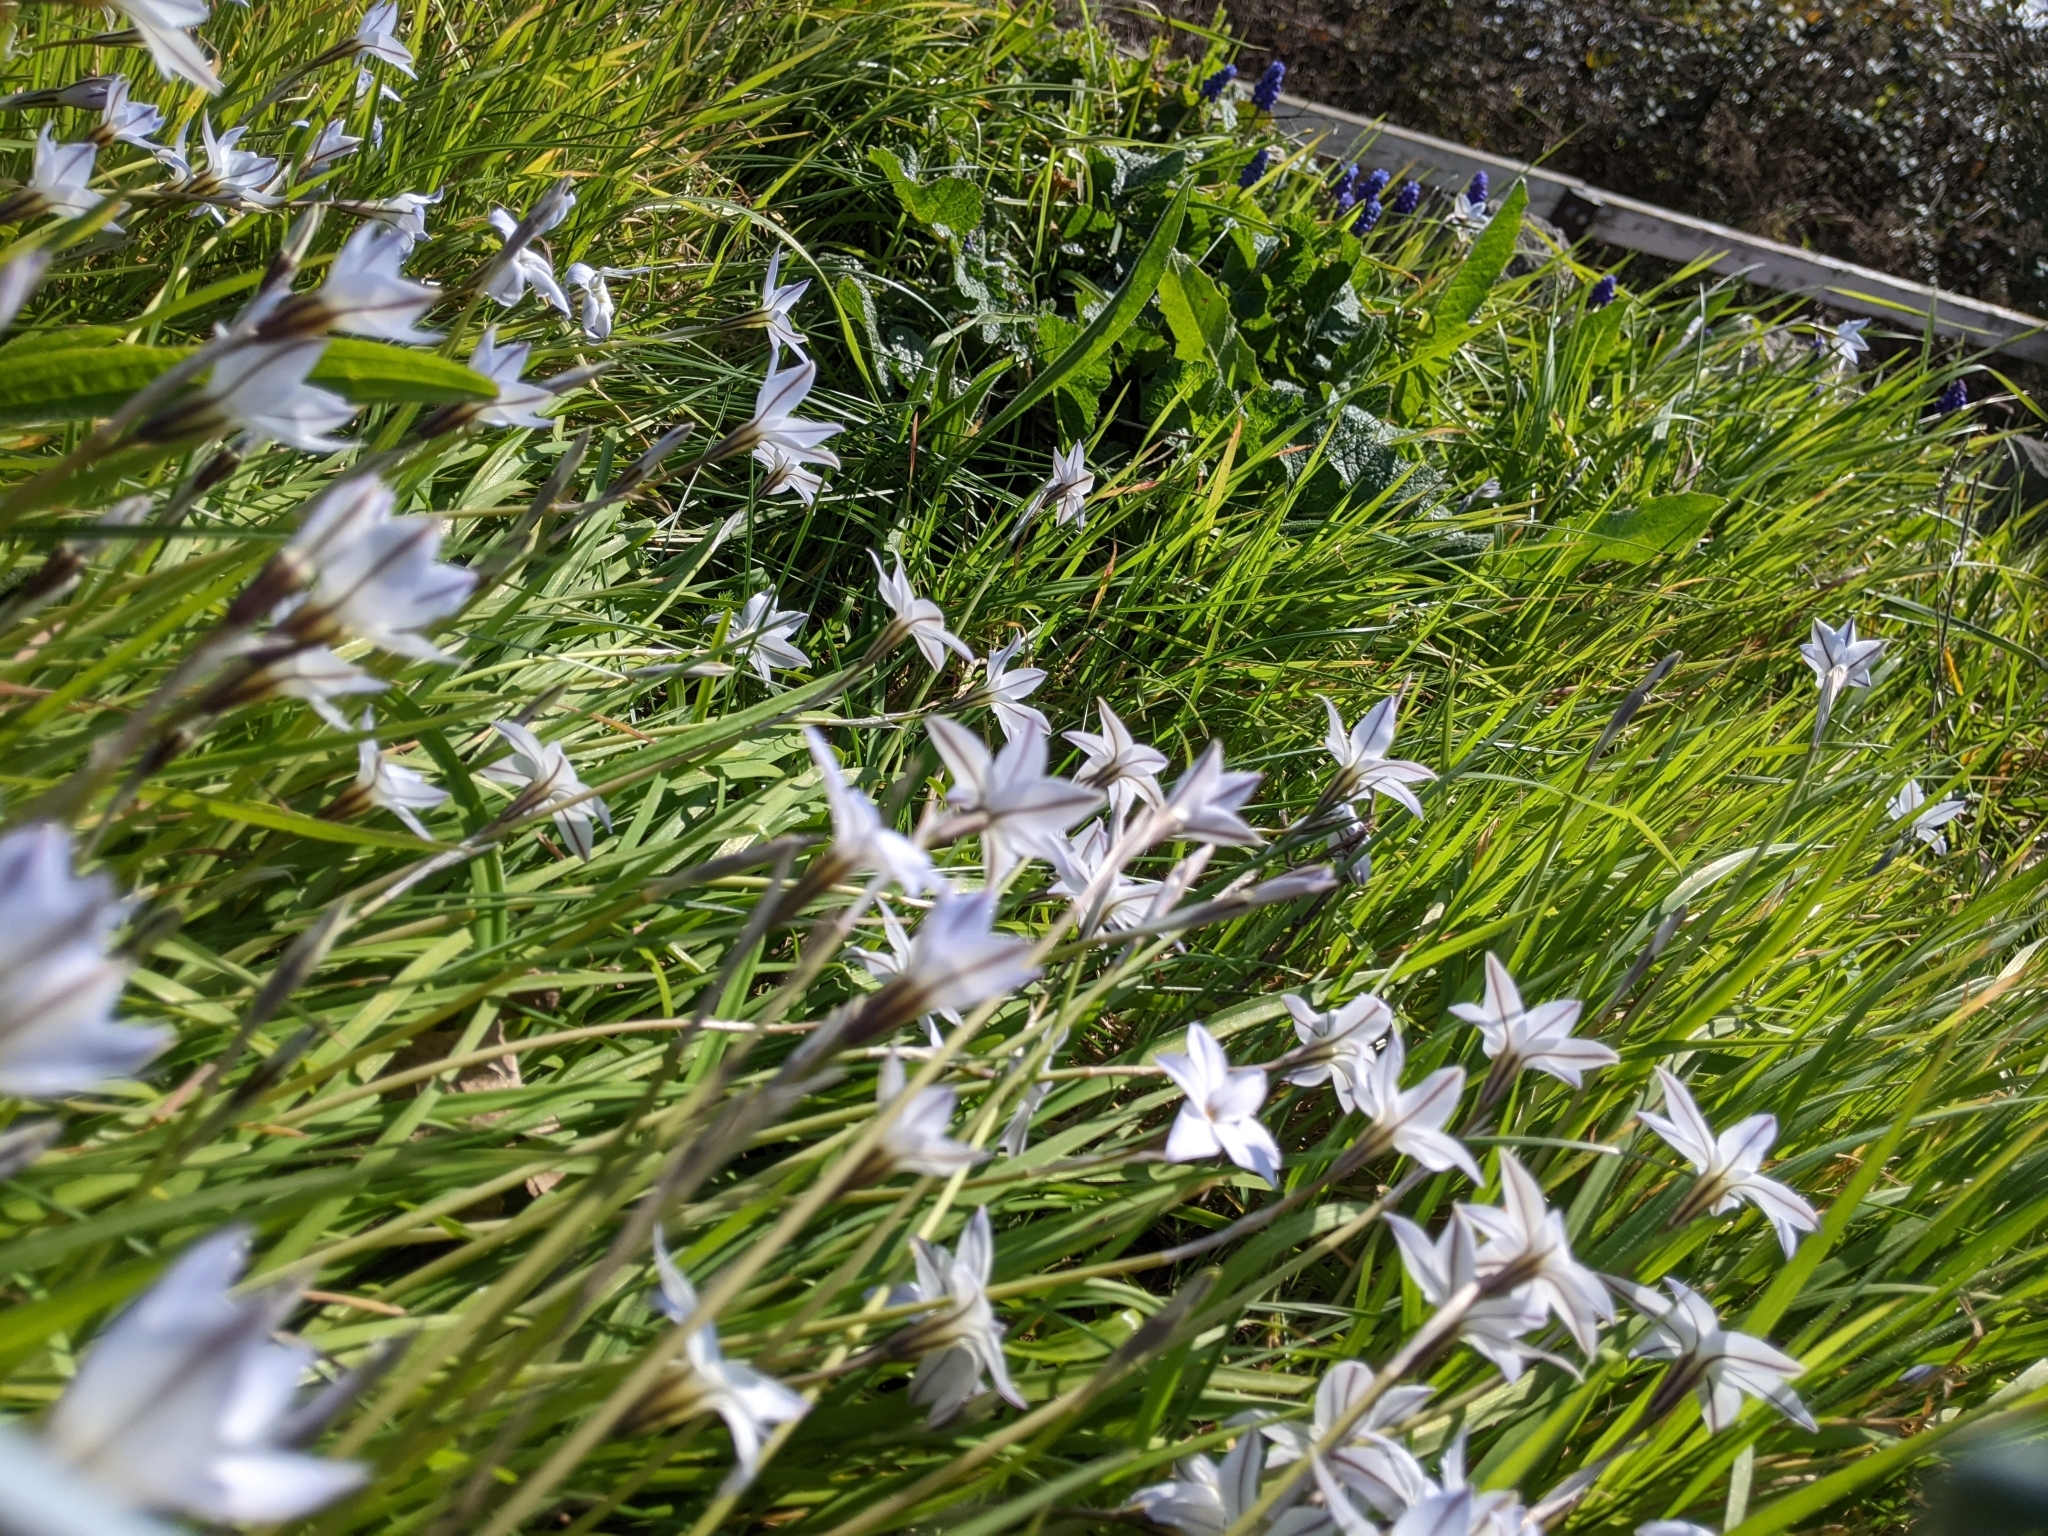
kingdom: Plantae
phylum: Tracheophyta
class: Liliopsida
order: Asparagales
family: Amaryllidaceae
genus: Ipheion
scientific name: Ipheion uniflorum
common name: Spring starflower
